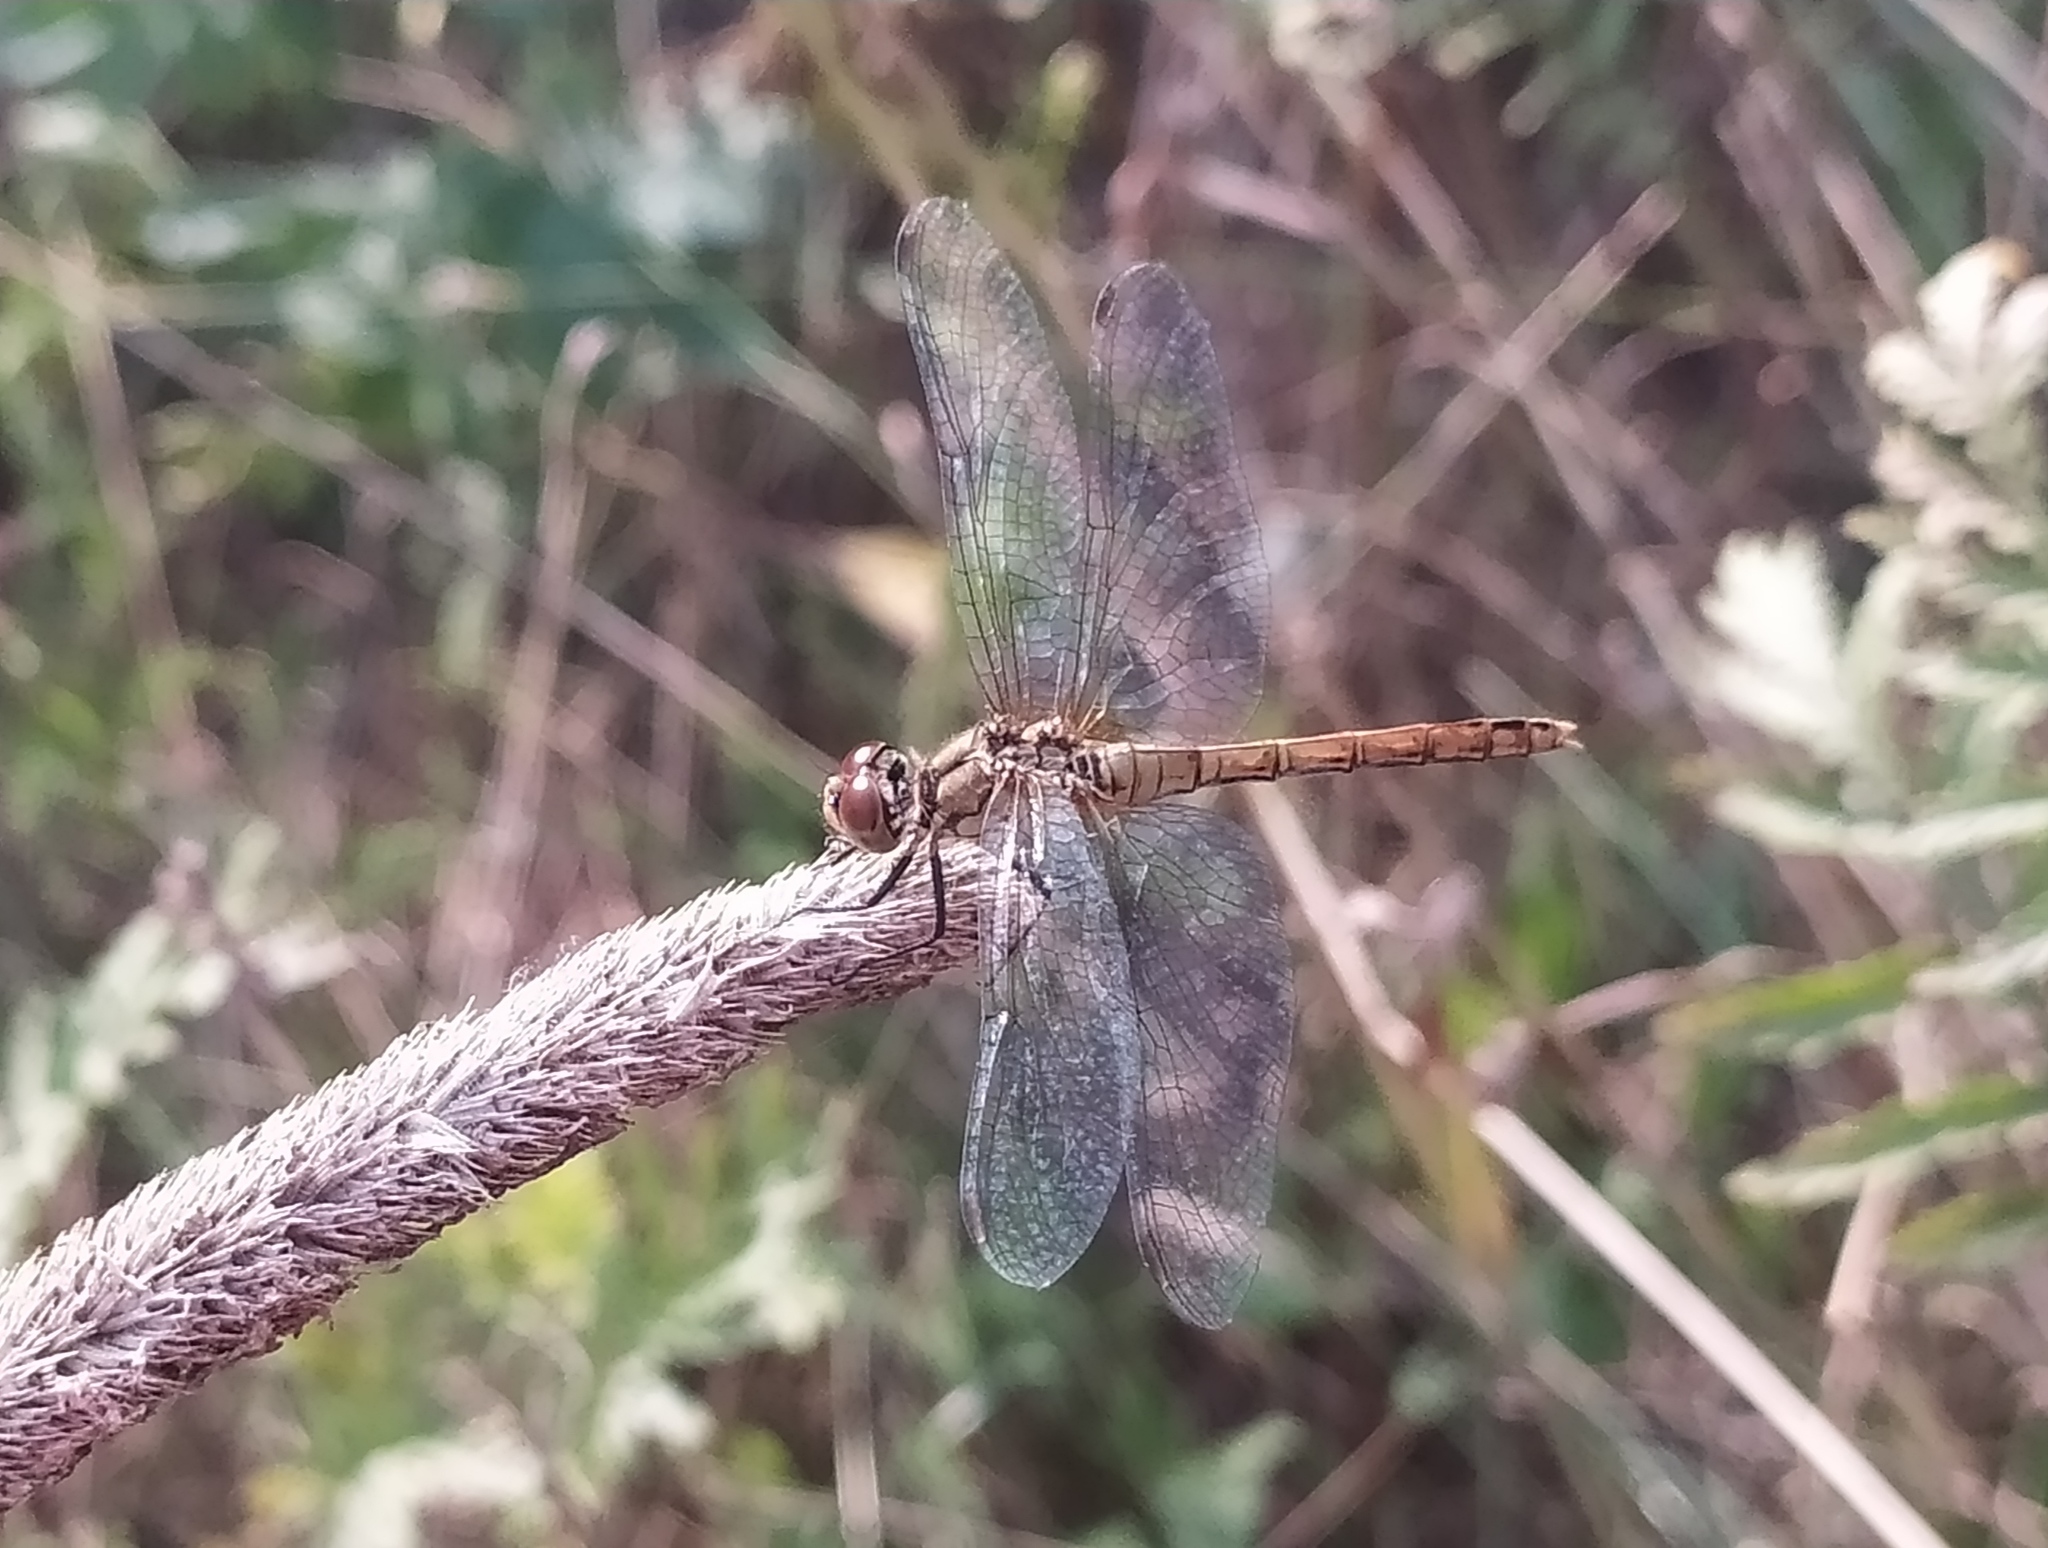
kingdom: Animalia
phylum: Arthropoda
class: Insecta
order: Odonata
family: Libellulidae
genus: Sympetrum
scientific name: Sympetrum sanguineum
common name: Ruddy darter
